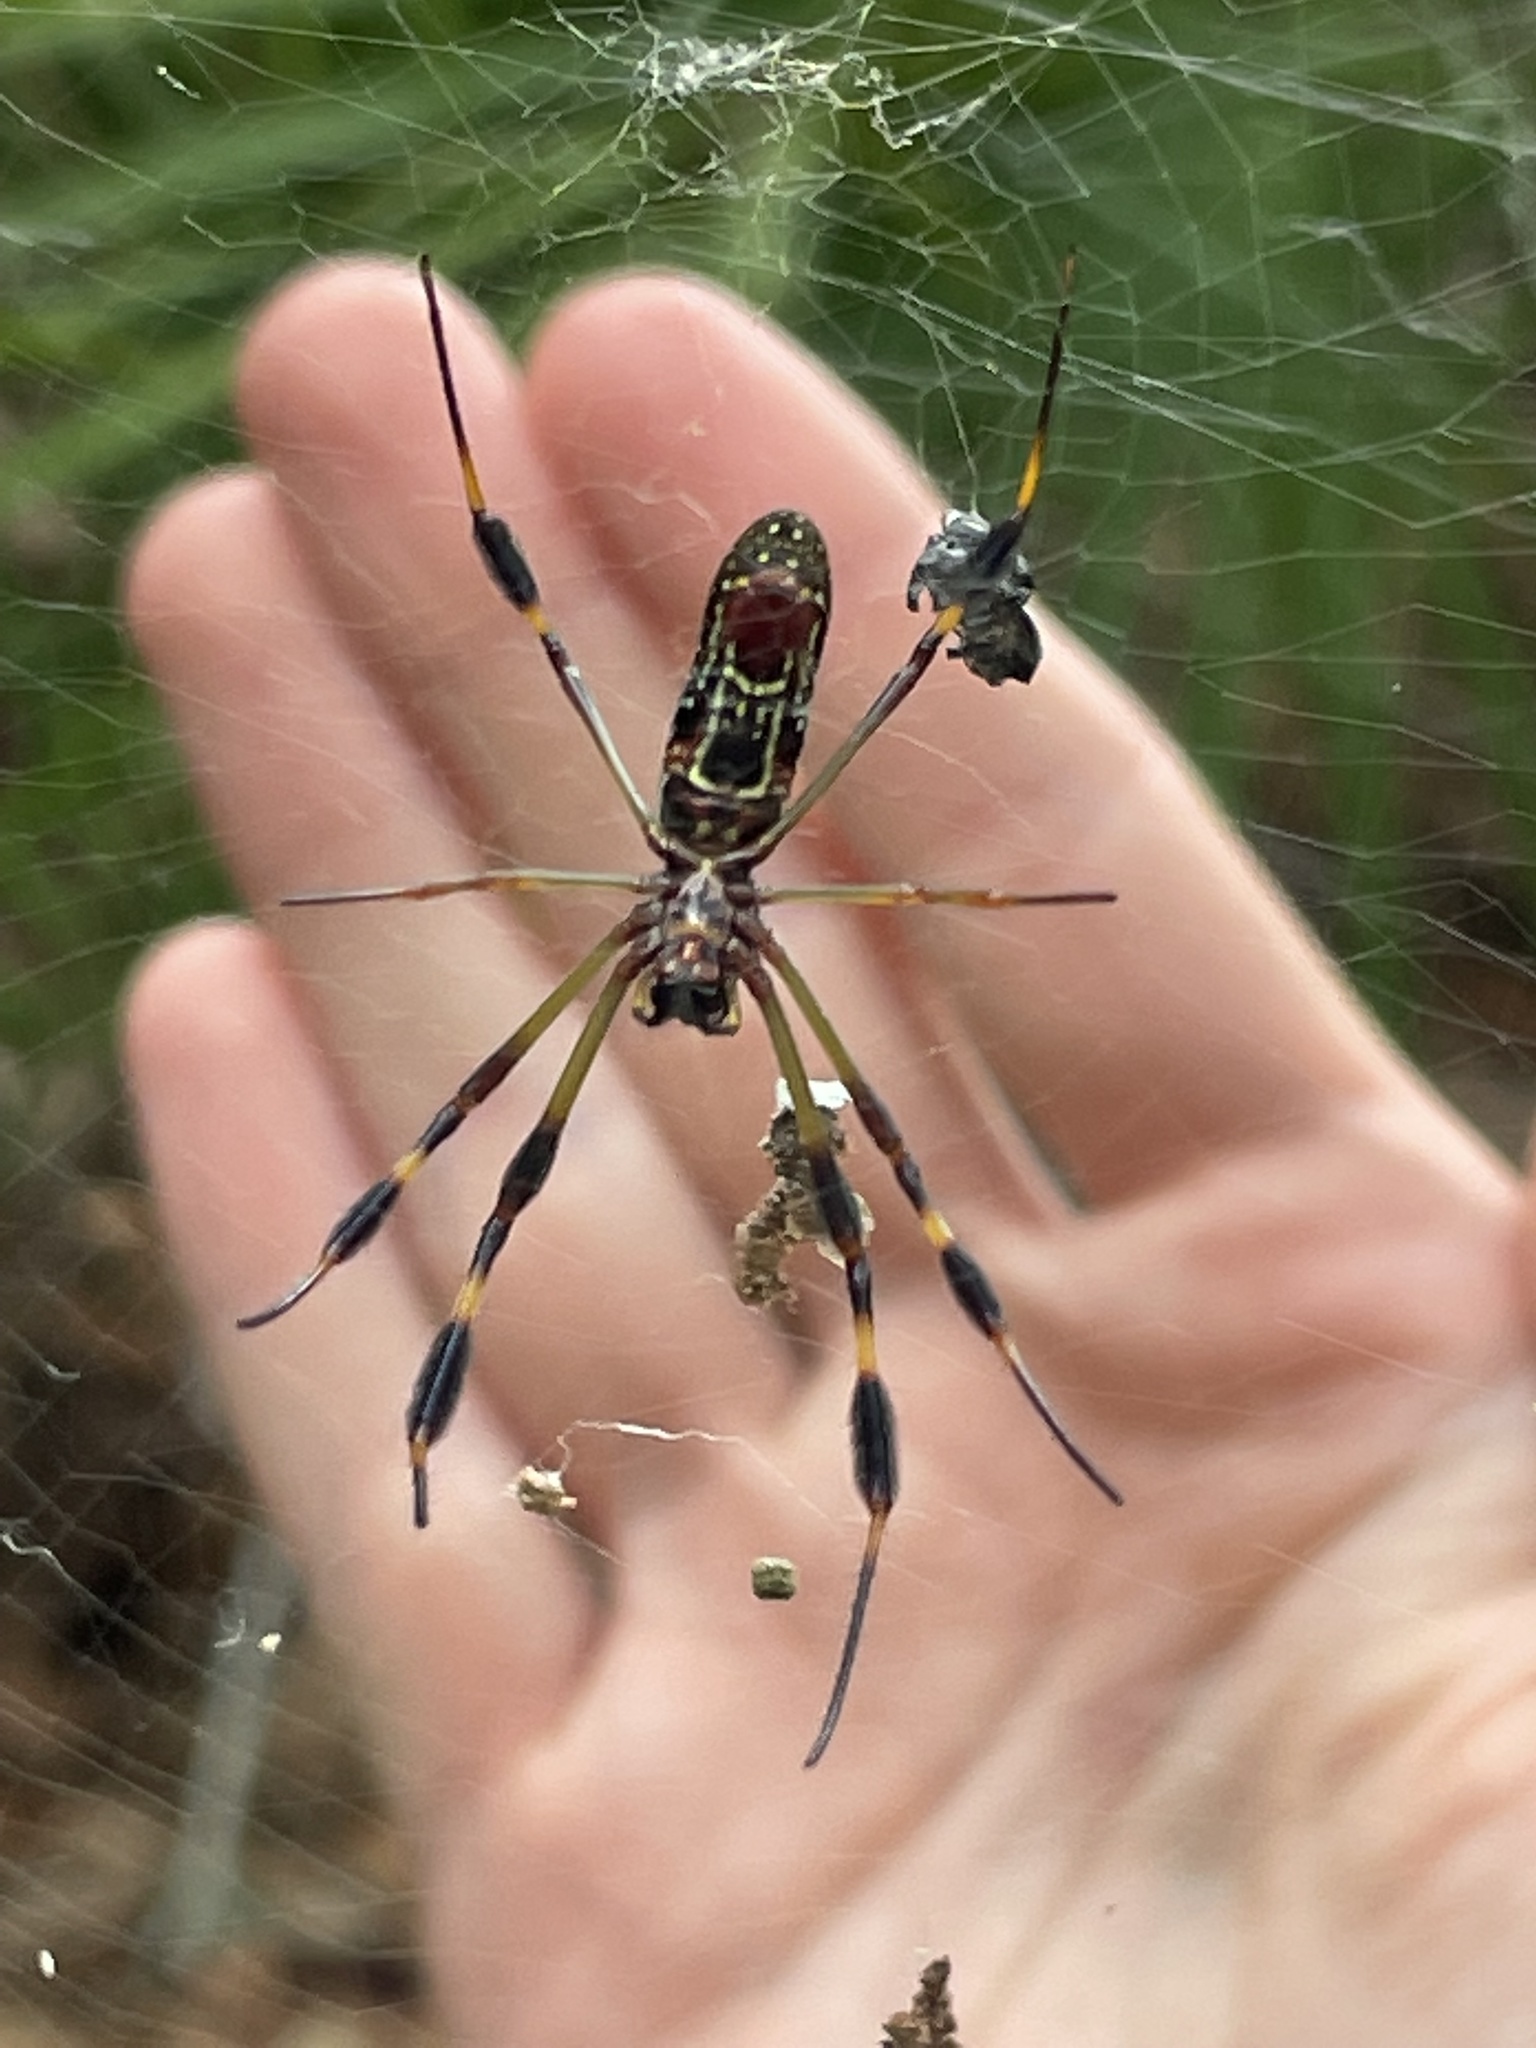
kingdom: Animalia
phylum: Arthropoda
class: Arachnida
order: Araneae
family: Araneidae
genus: Trichonephila
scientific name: Trichonephila clavipes
